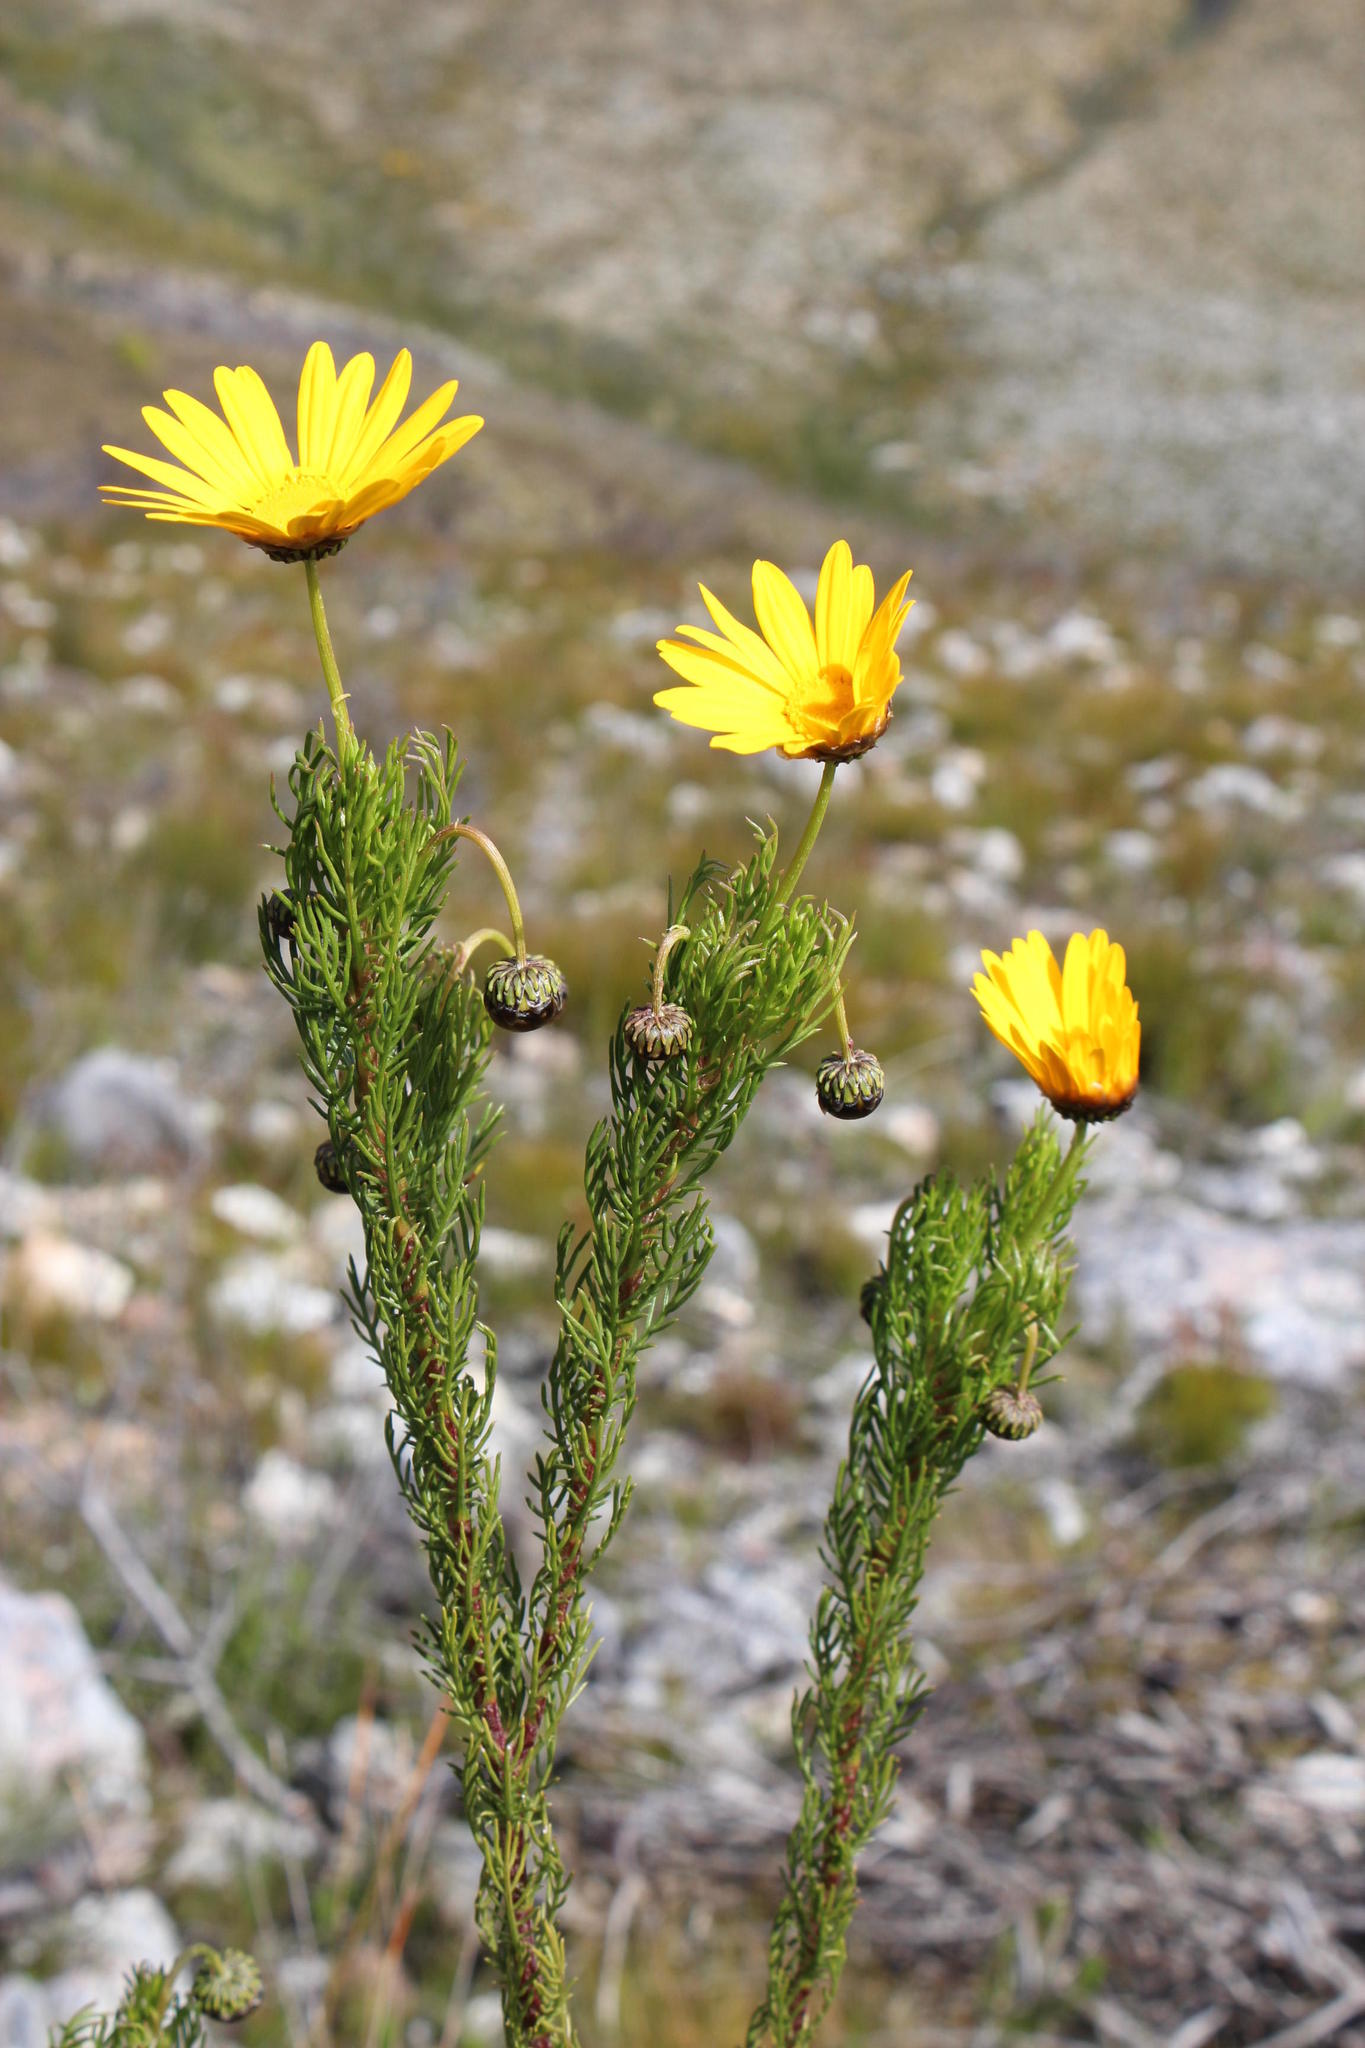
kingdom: Plantae
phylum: Tracheophyta
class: Magnoliopsida
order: Asterales
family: Asteraceae
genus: Ursinia
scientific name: Ursinia paleacea
